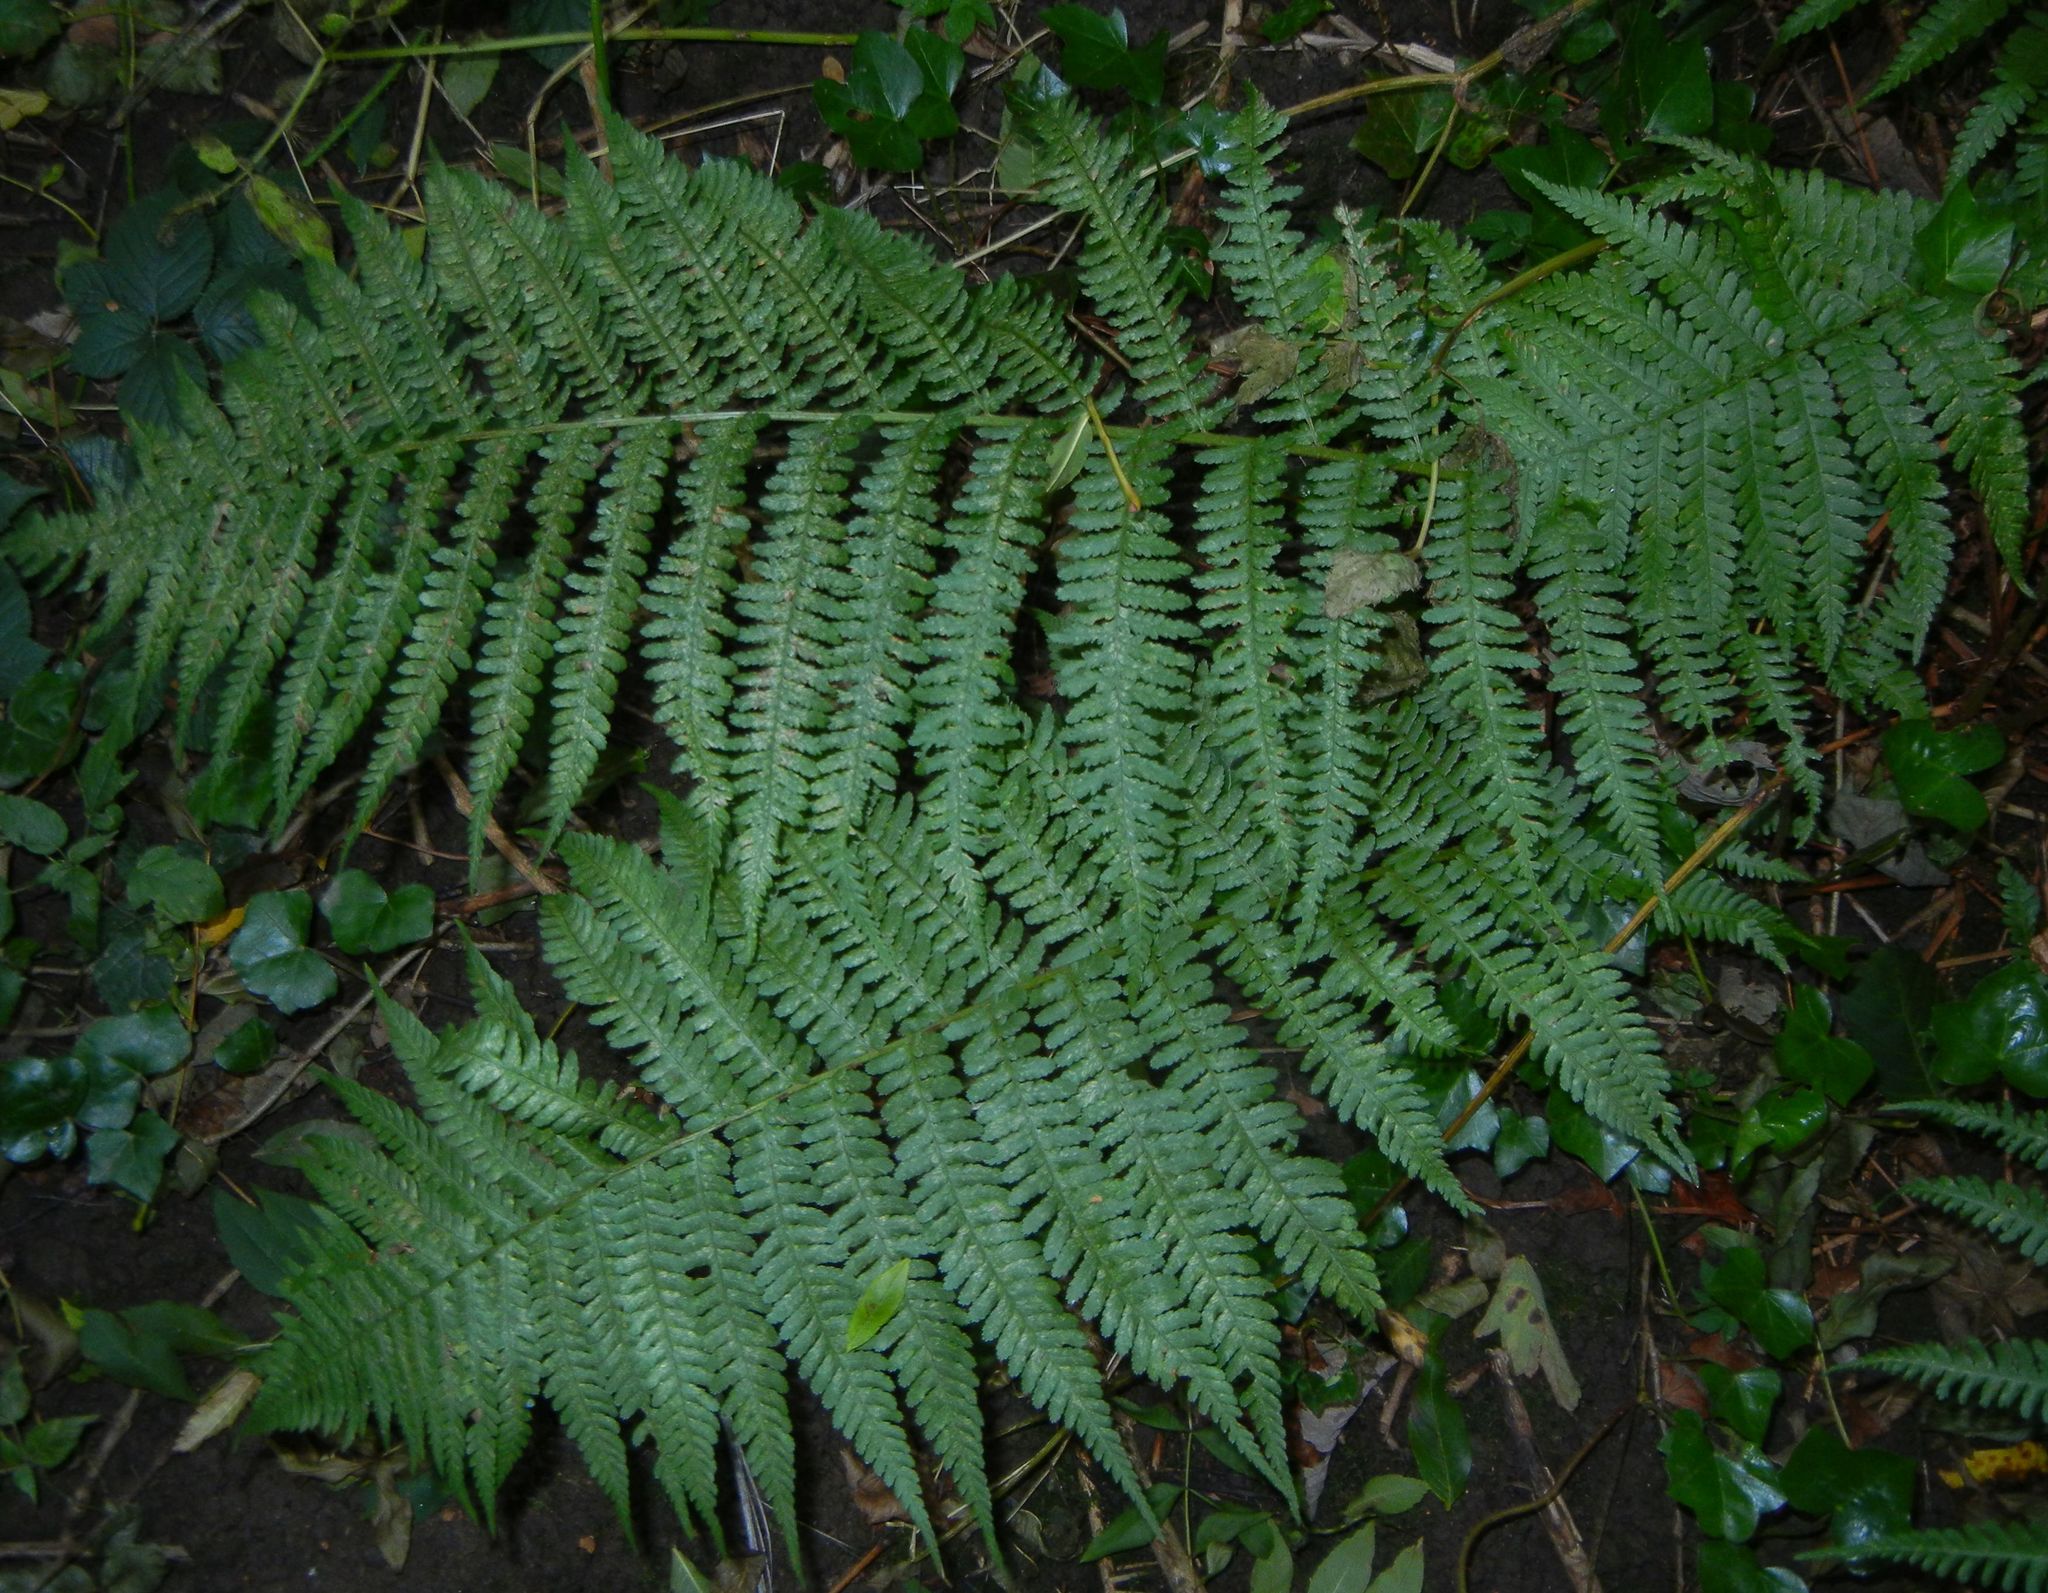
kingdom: Plantae
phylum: Tracheophyta
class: Polypodiopsida
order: Polypodiales
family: Dryopteridaceae
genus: Dryopteris
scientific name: Dryopteris filix-mas
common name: Male fern
